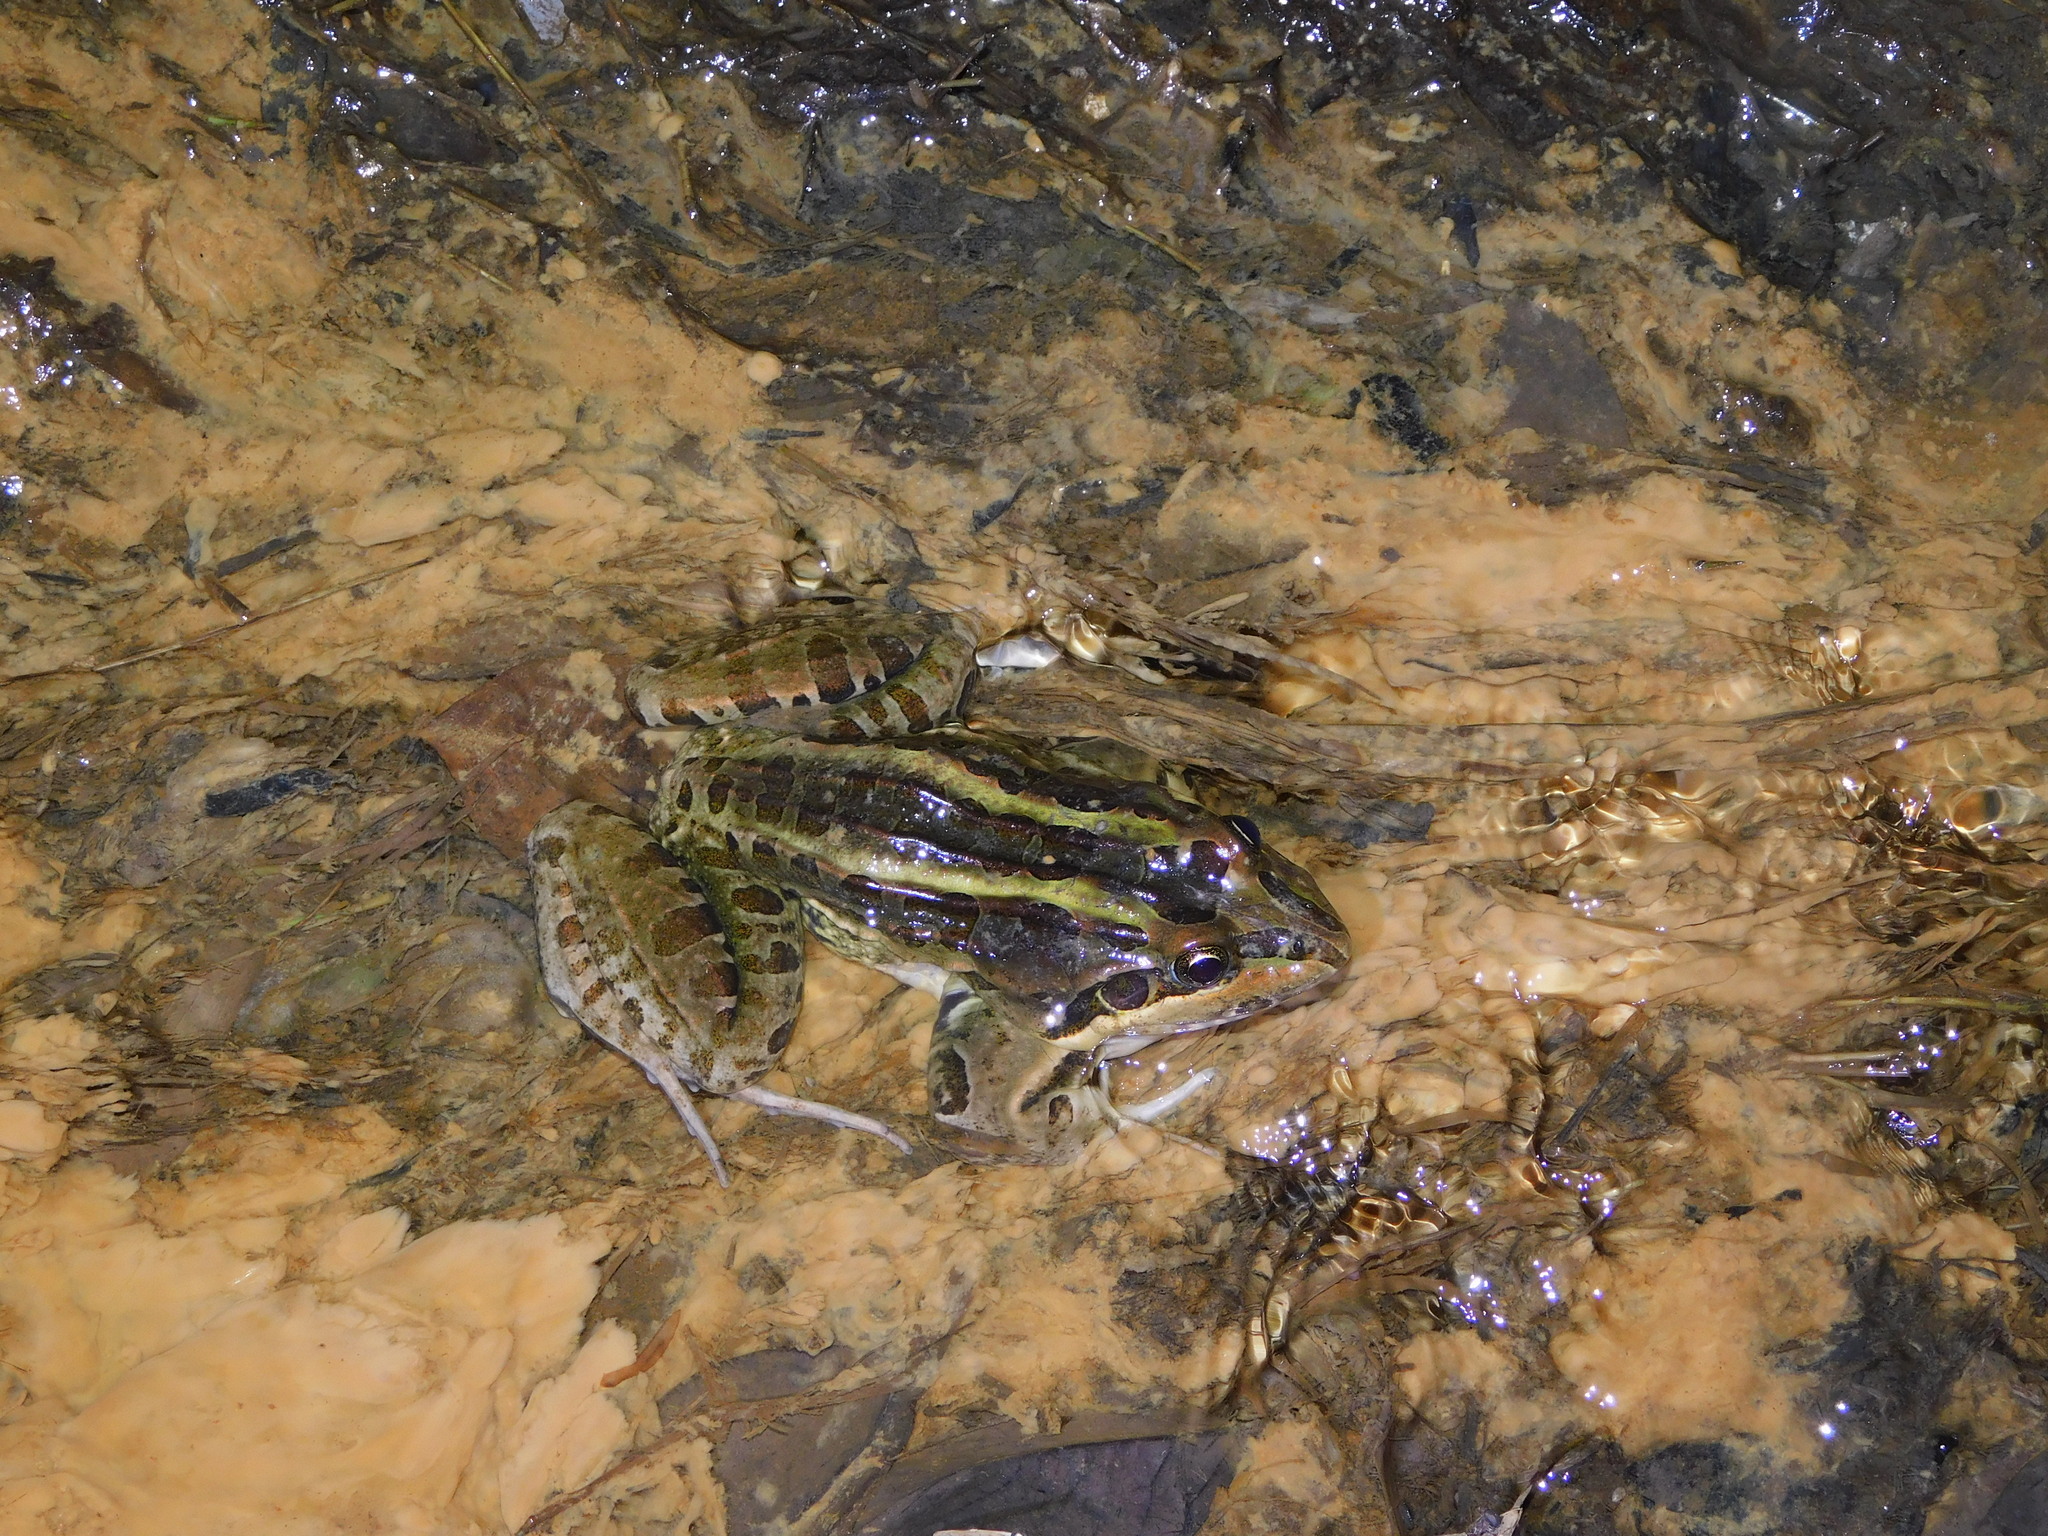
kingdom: Animalia
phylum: Chordata
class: Amphibia
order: Anura
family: Leptodactylidae
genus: Leptodactylus
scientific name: Leptodactylus luctator
